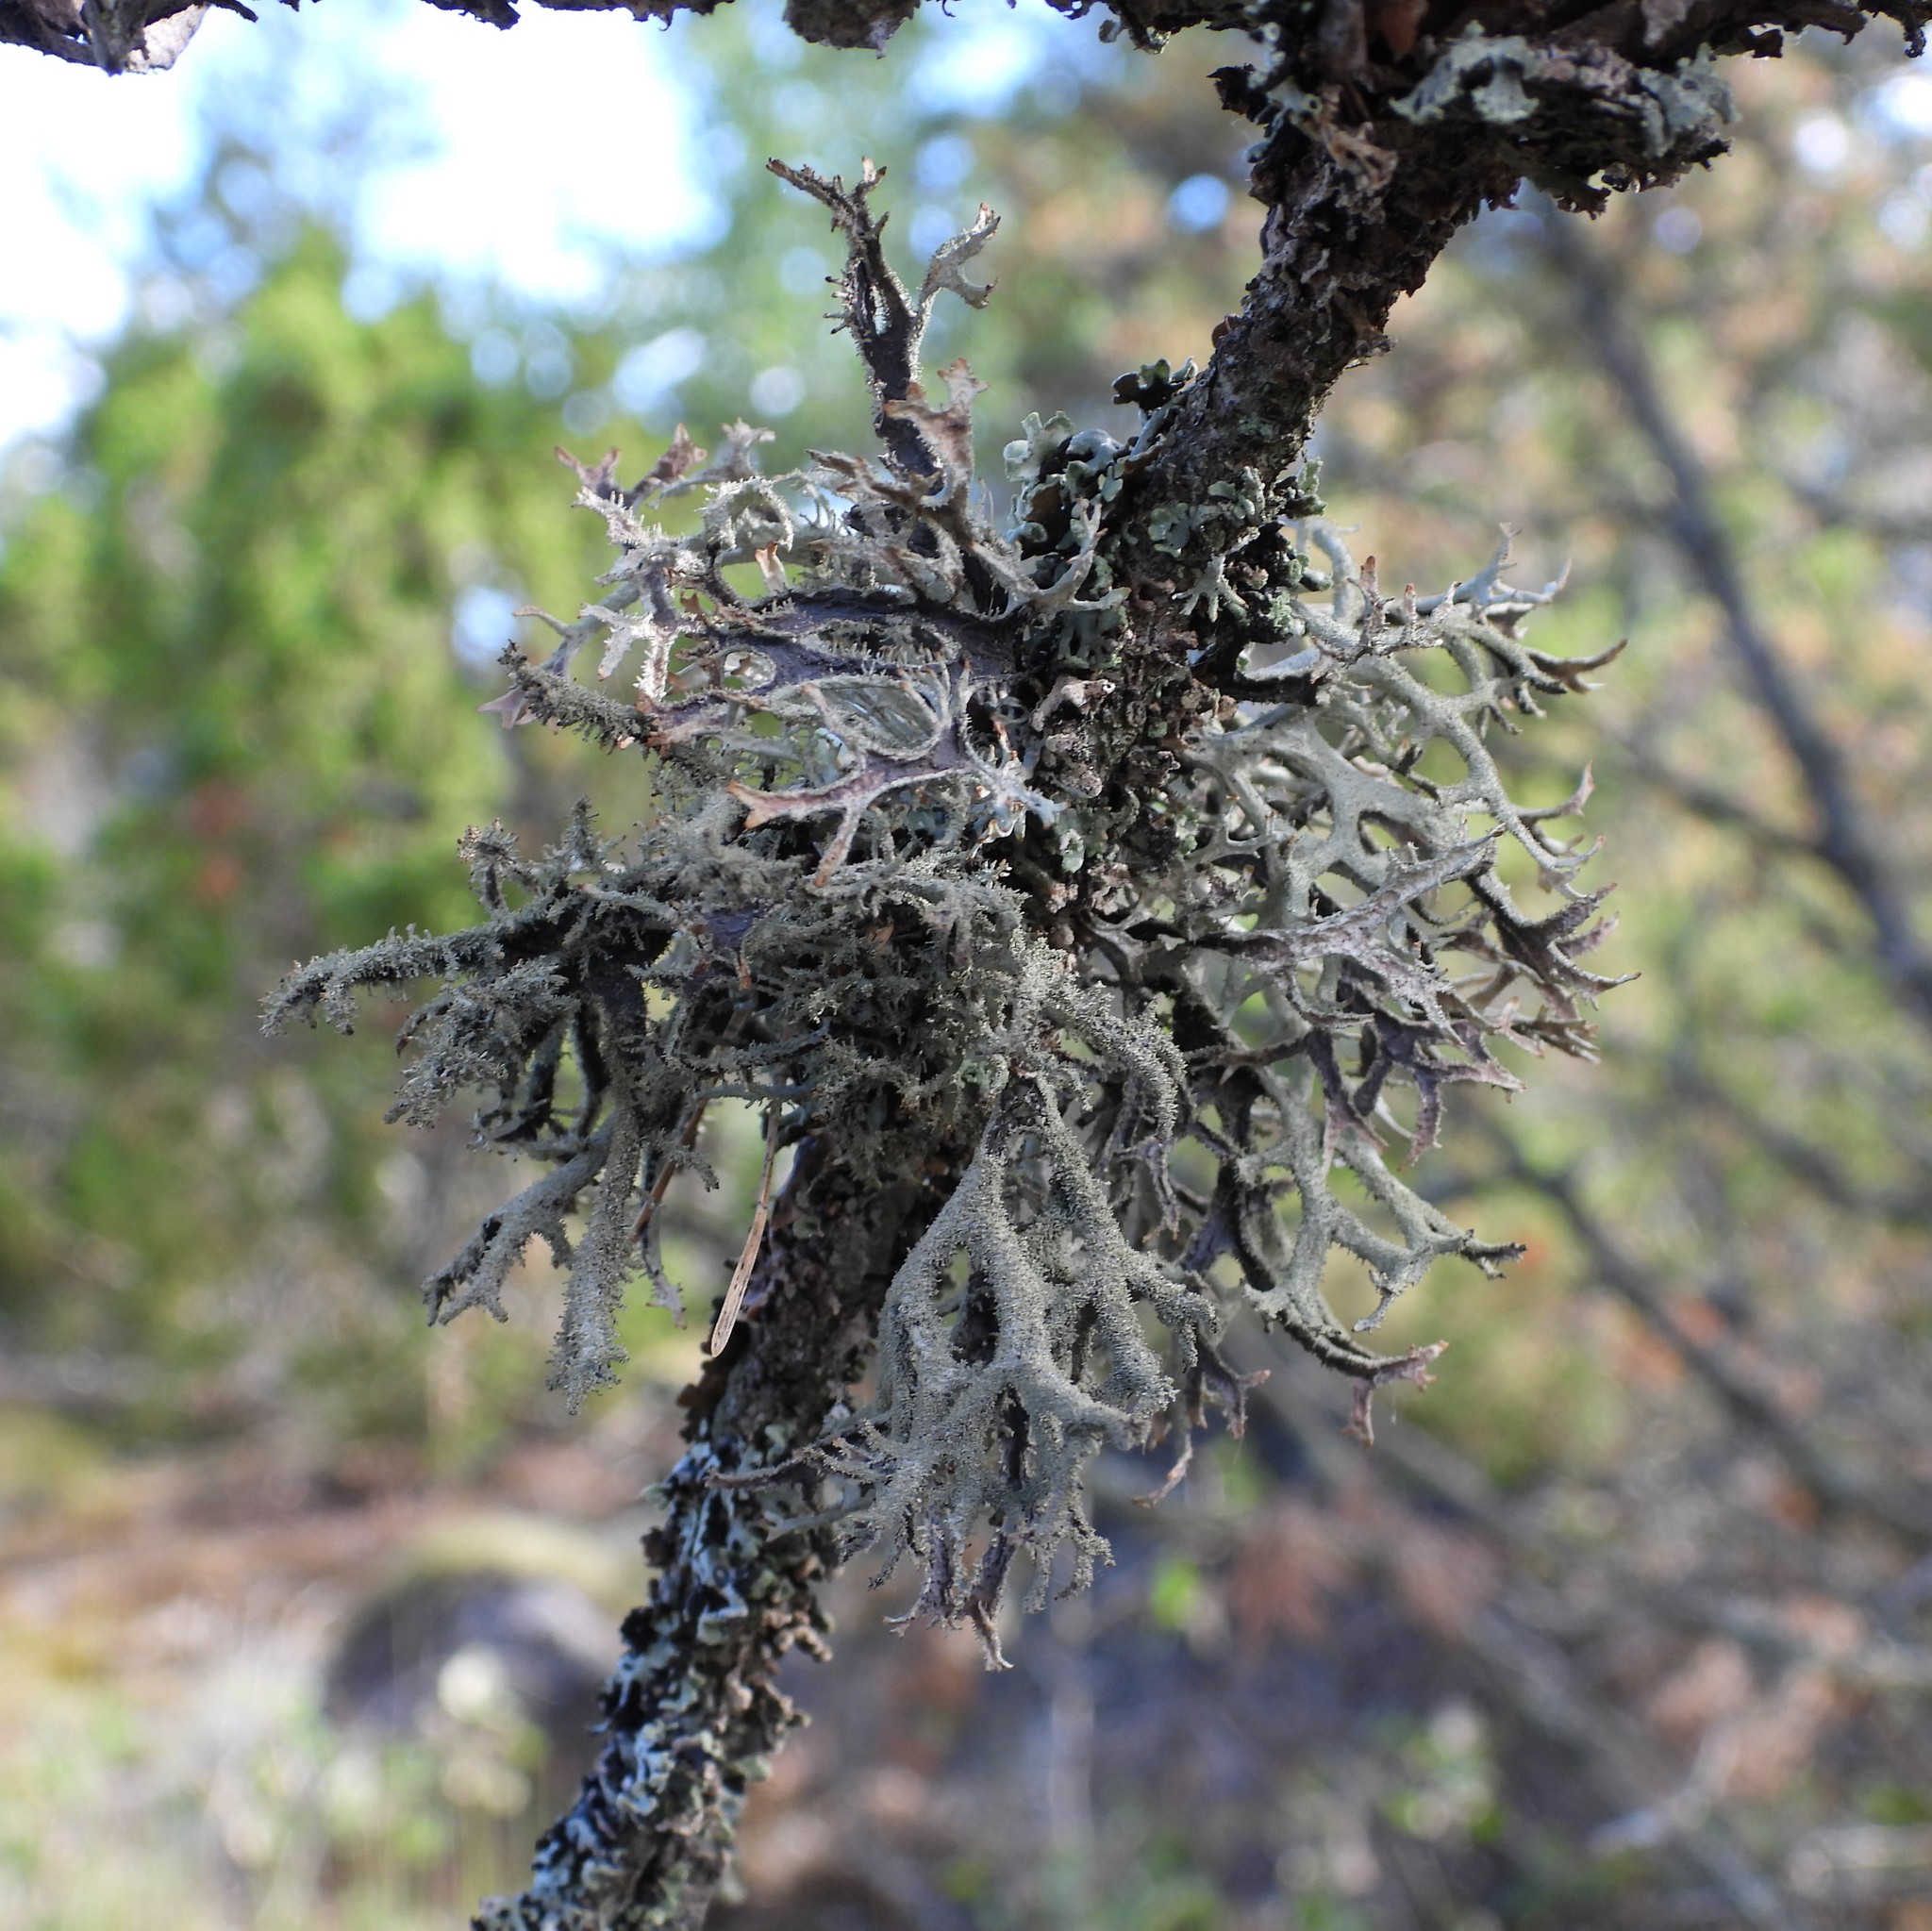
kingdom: Fungi
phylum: Ascomycota
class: Lecanoromycetes
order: Lecanorales
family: Parmeliaceae
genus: Pseudevernia
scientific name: Pseudevernia furfuracea
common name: Tree moss
